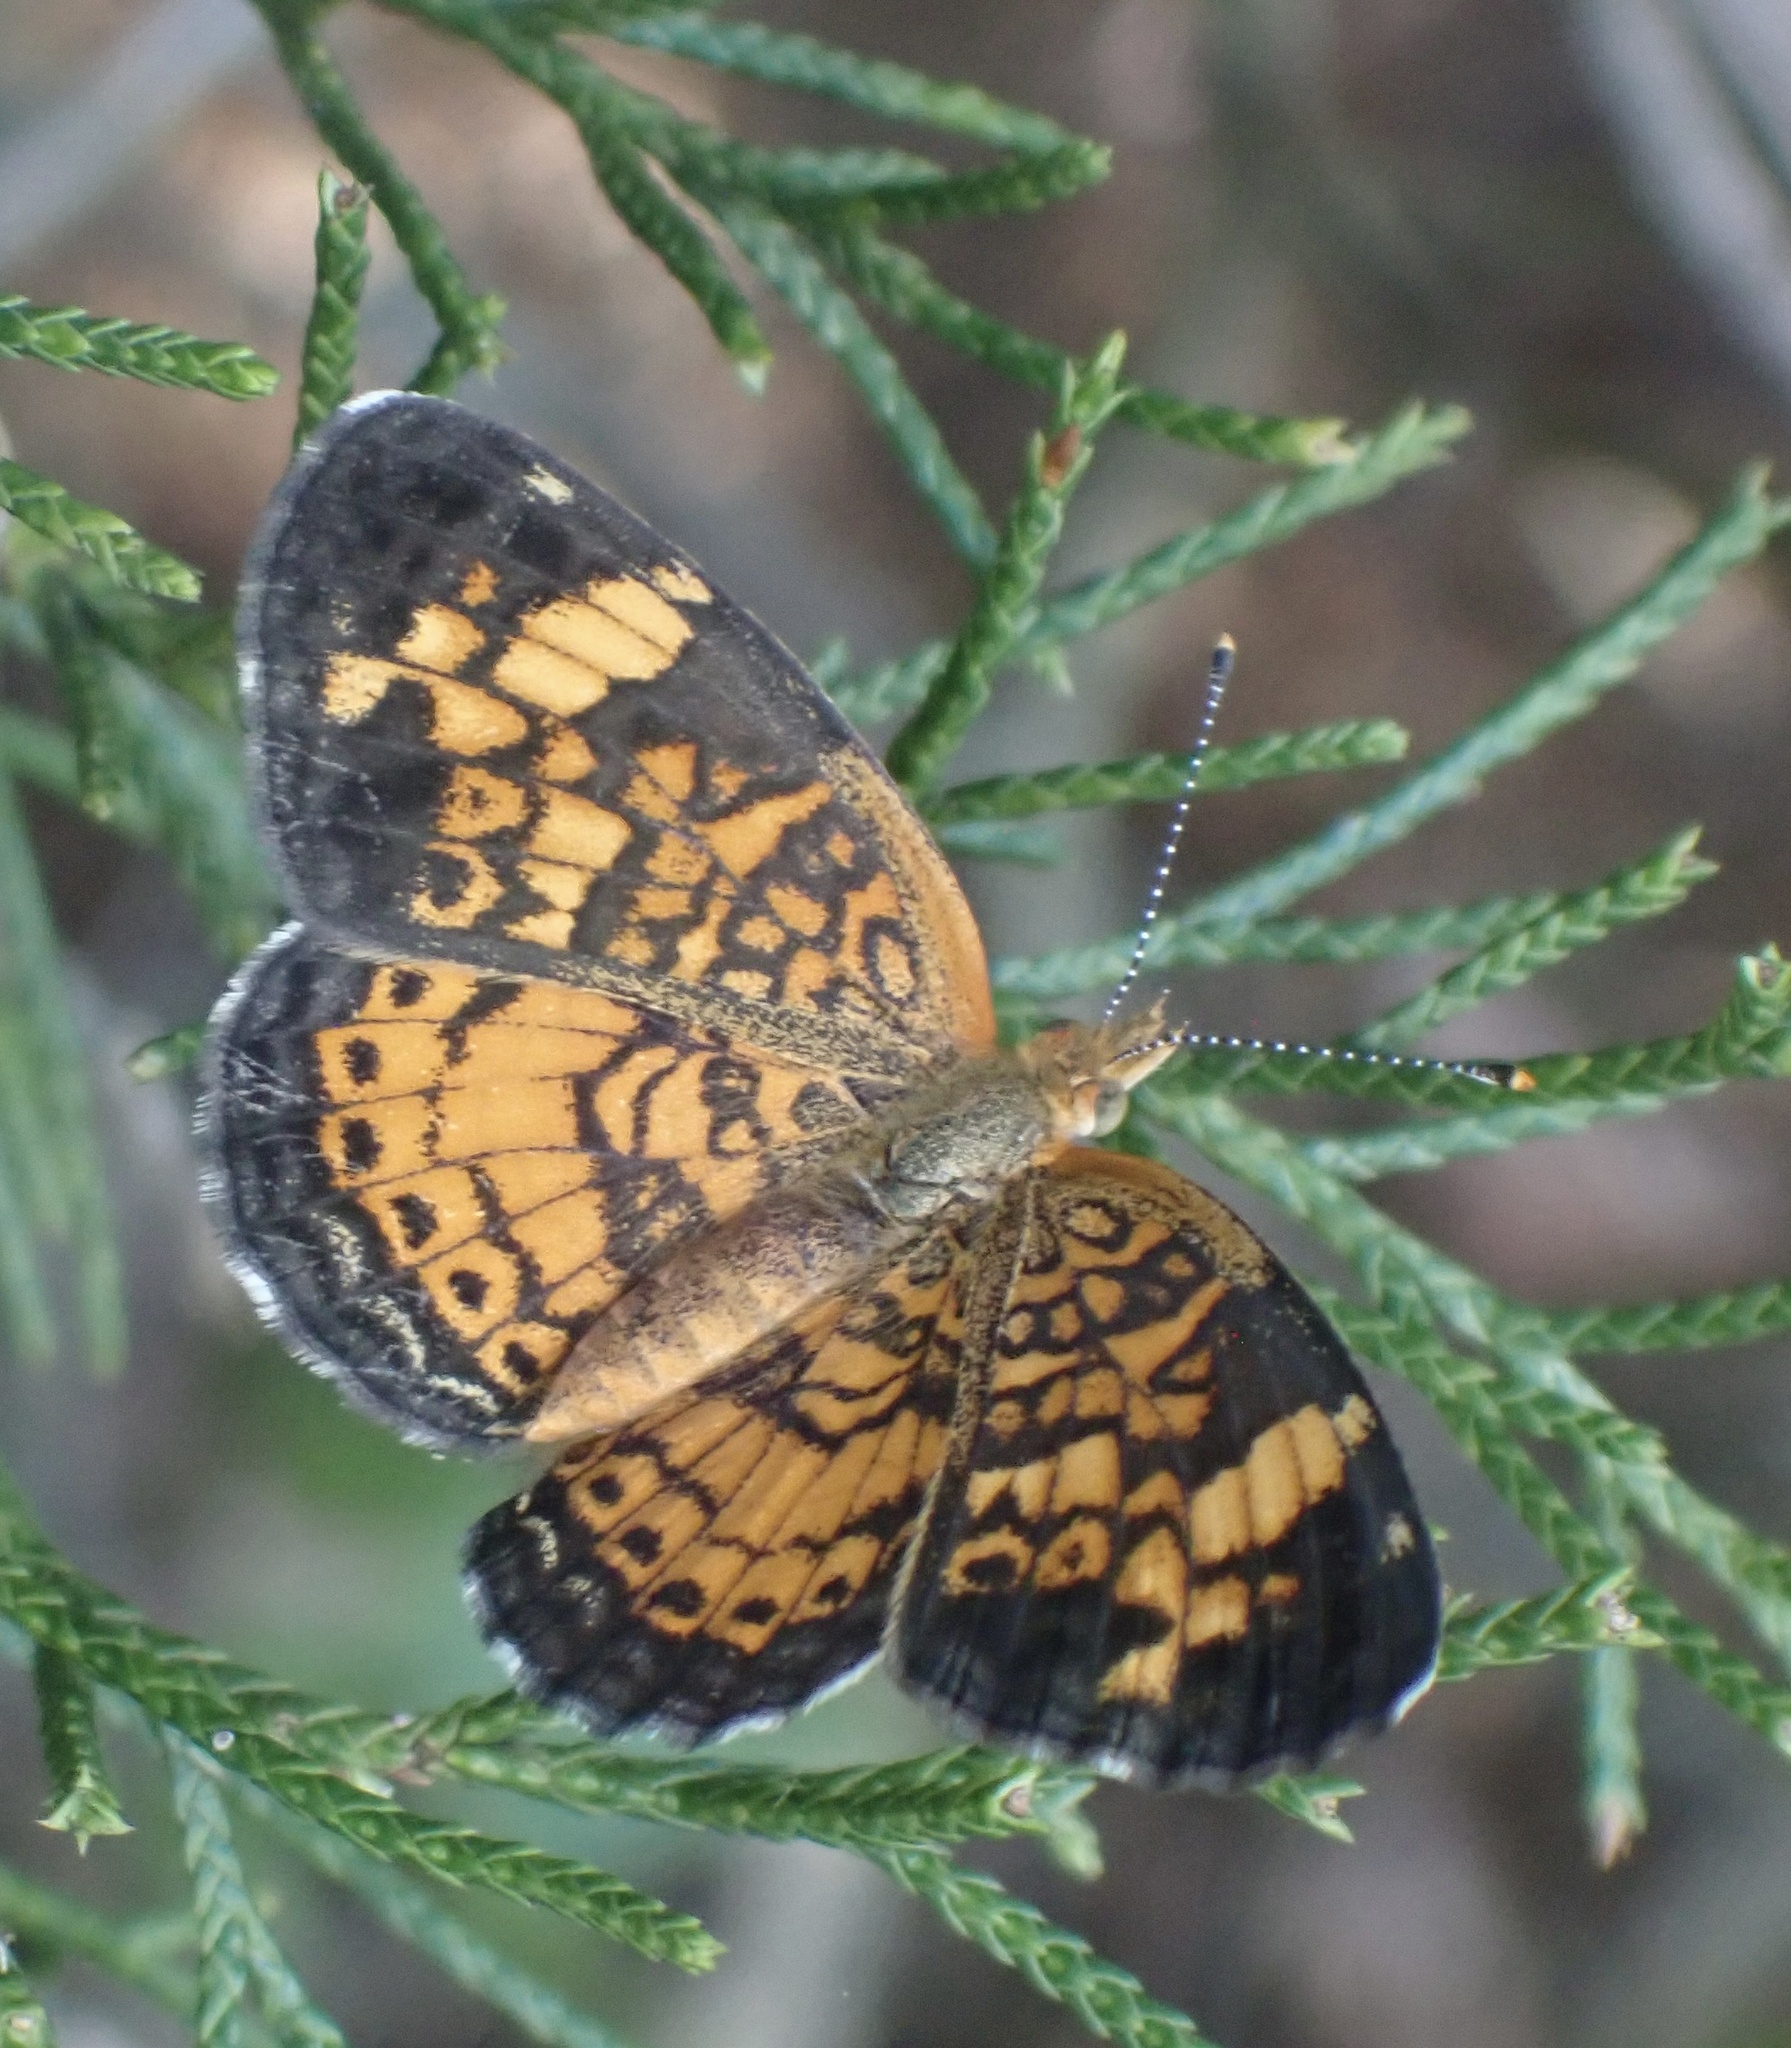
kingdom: Animalia
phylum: Arthropoda
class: Insecta
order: Lepidoptera
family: Nymphalidae
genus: Phyciodes
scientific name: Phyciodes tharos
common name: Pearl crescent
